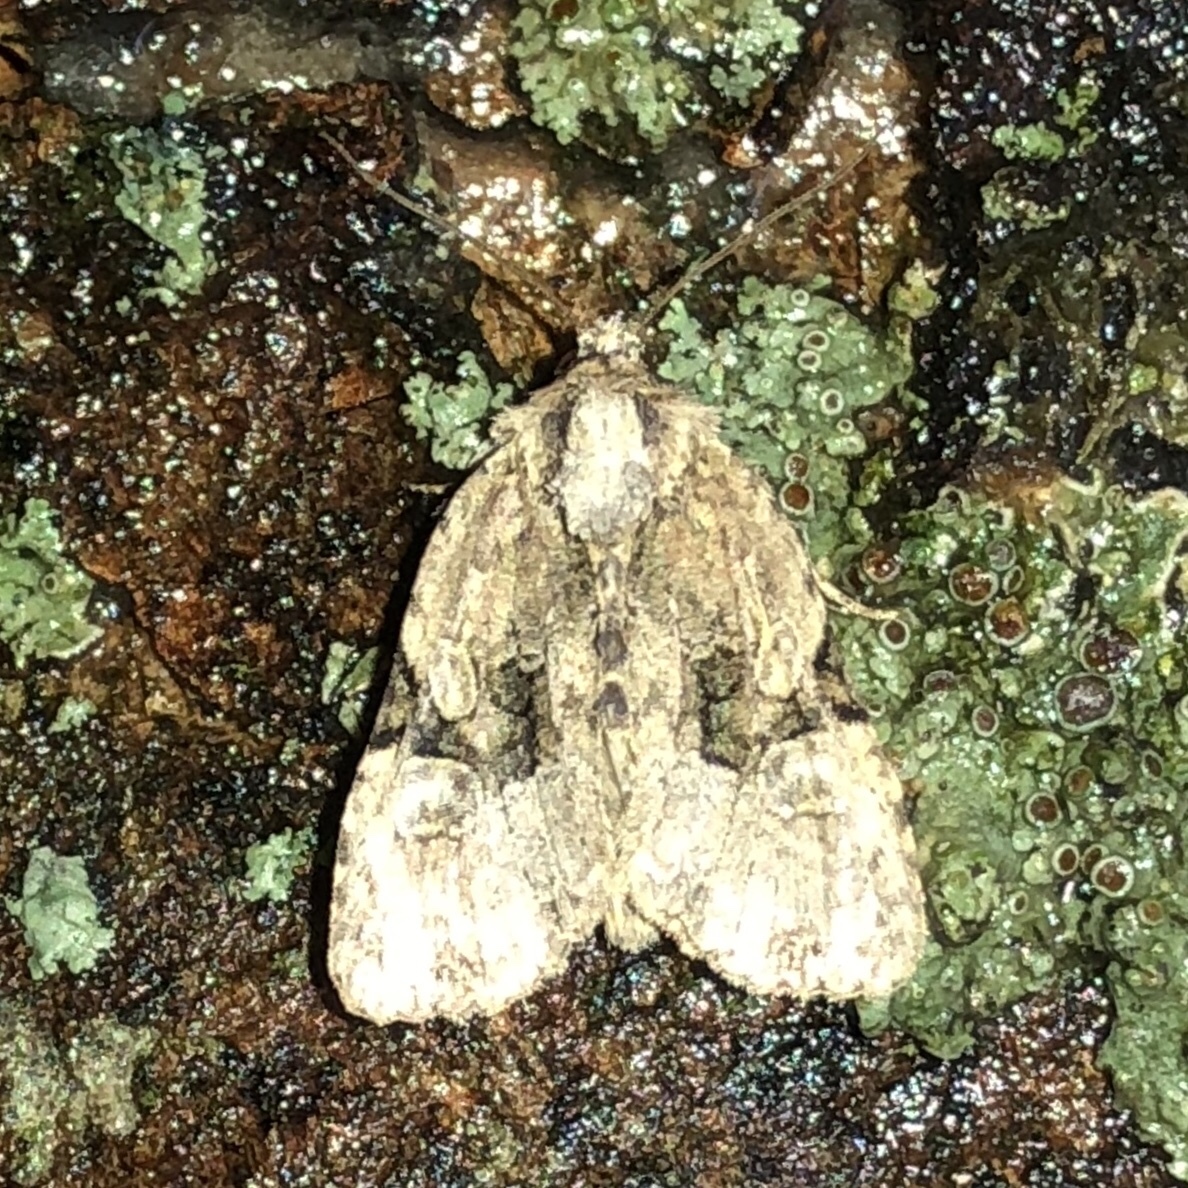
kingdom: Animalia
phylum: Arthropoda
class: Insecta
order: Lepidoptera
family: Noctuidae
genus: Oligia
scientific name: Oligia modica
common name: Black-banded brocade
